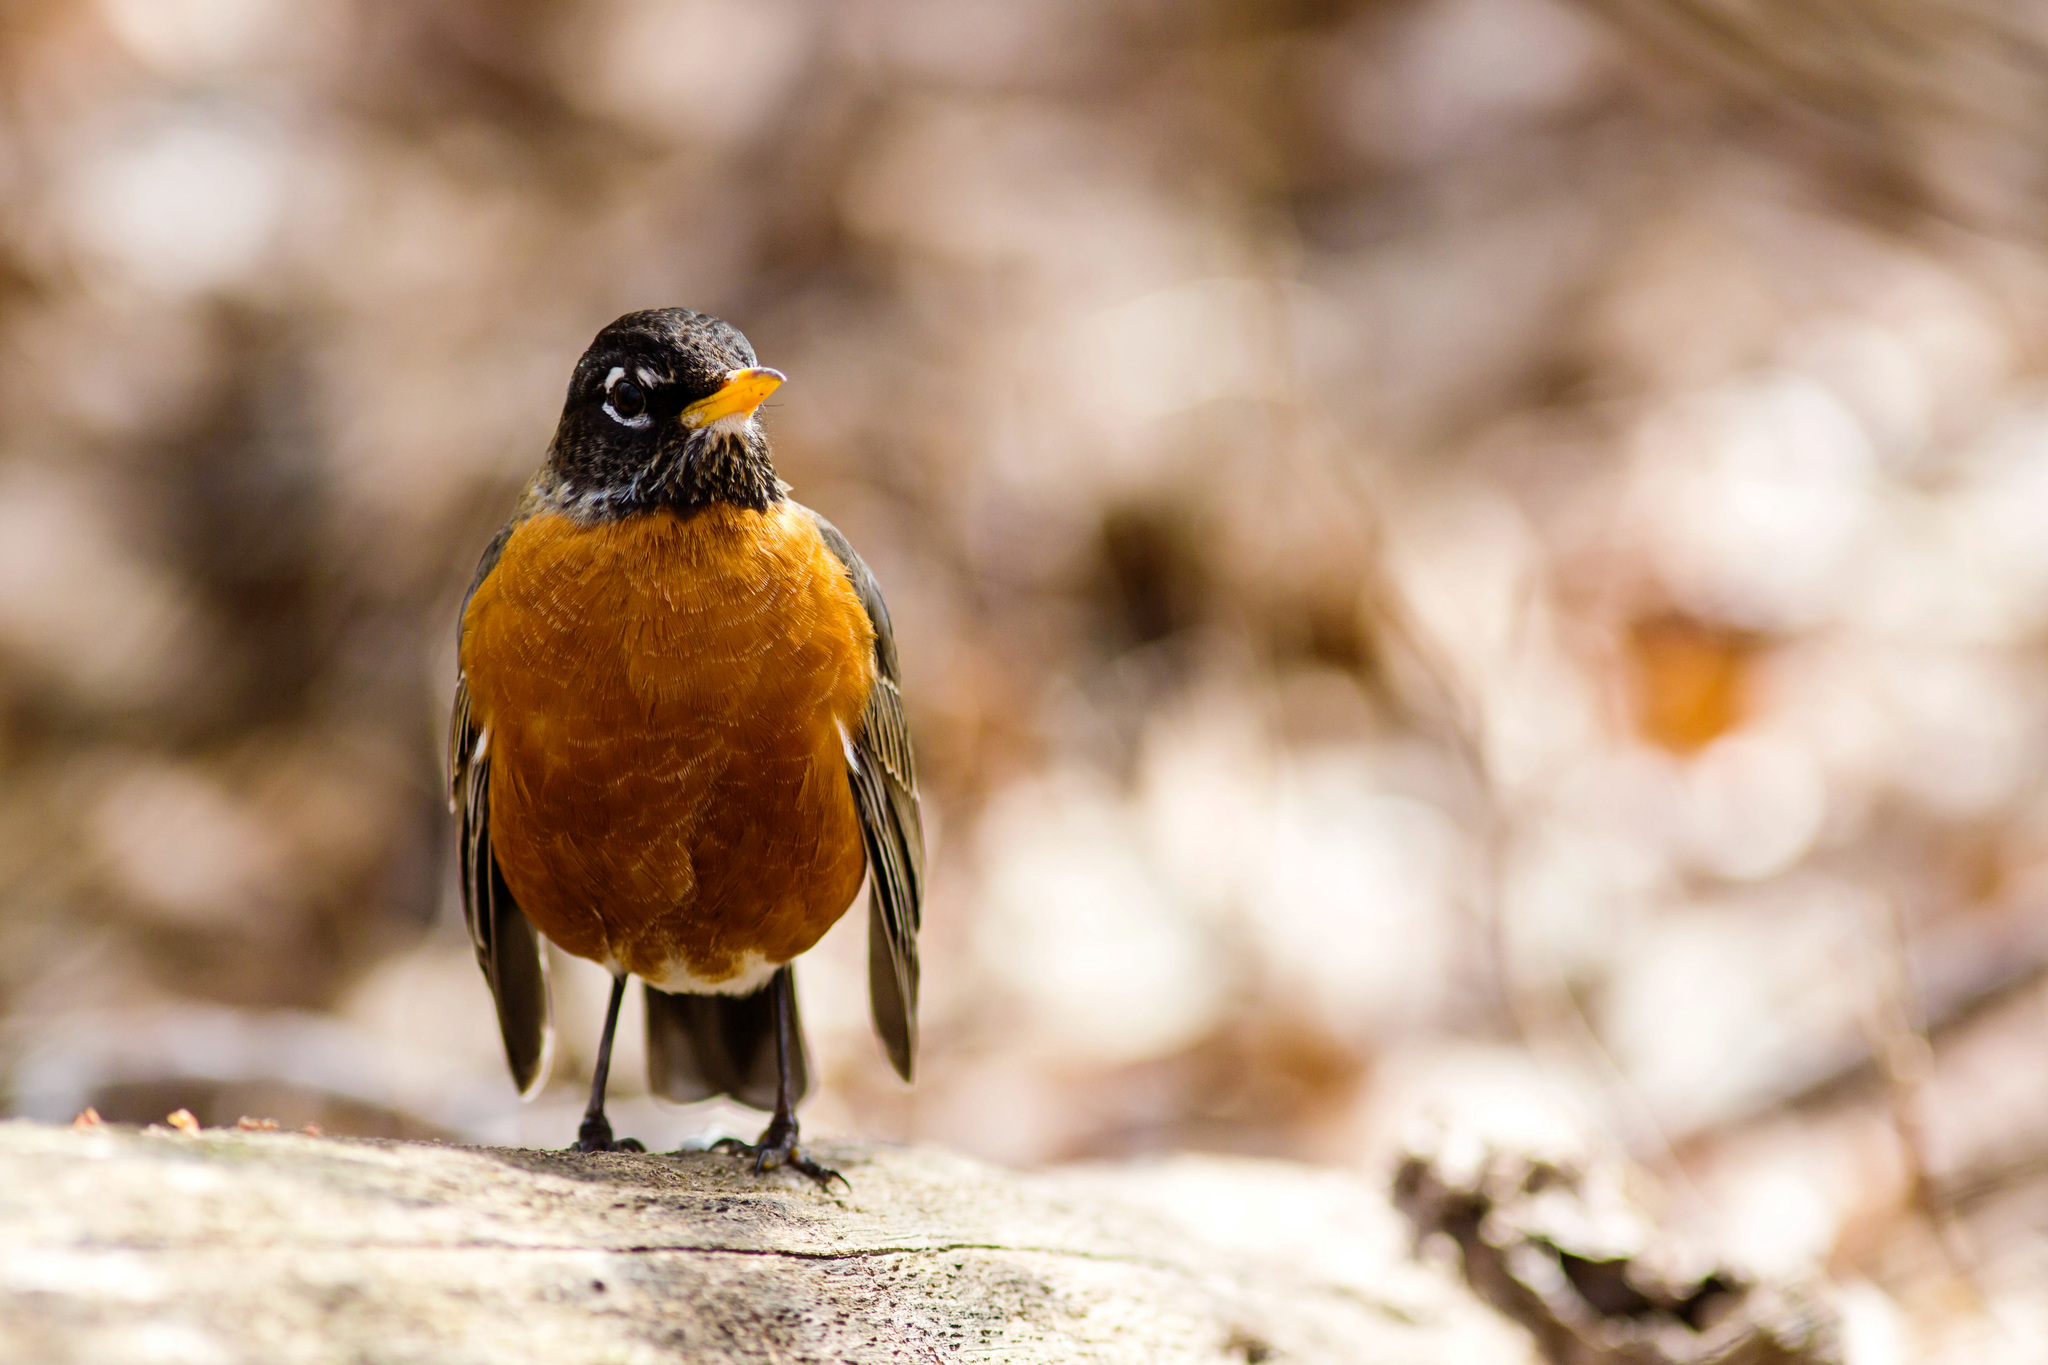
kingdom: Animalia
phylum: Chordata
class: Aves
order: Passeriformes
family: Turdidae
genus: Turdus
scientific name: Turdus migratorius
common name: American robin
